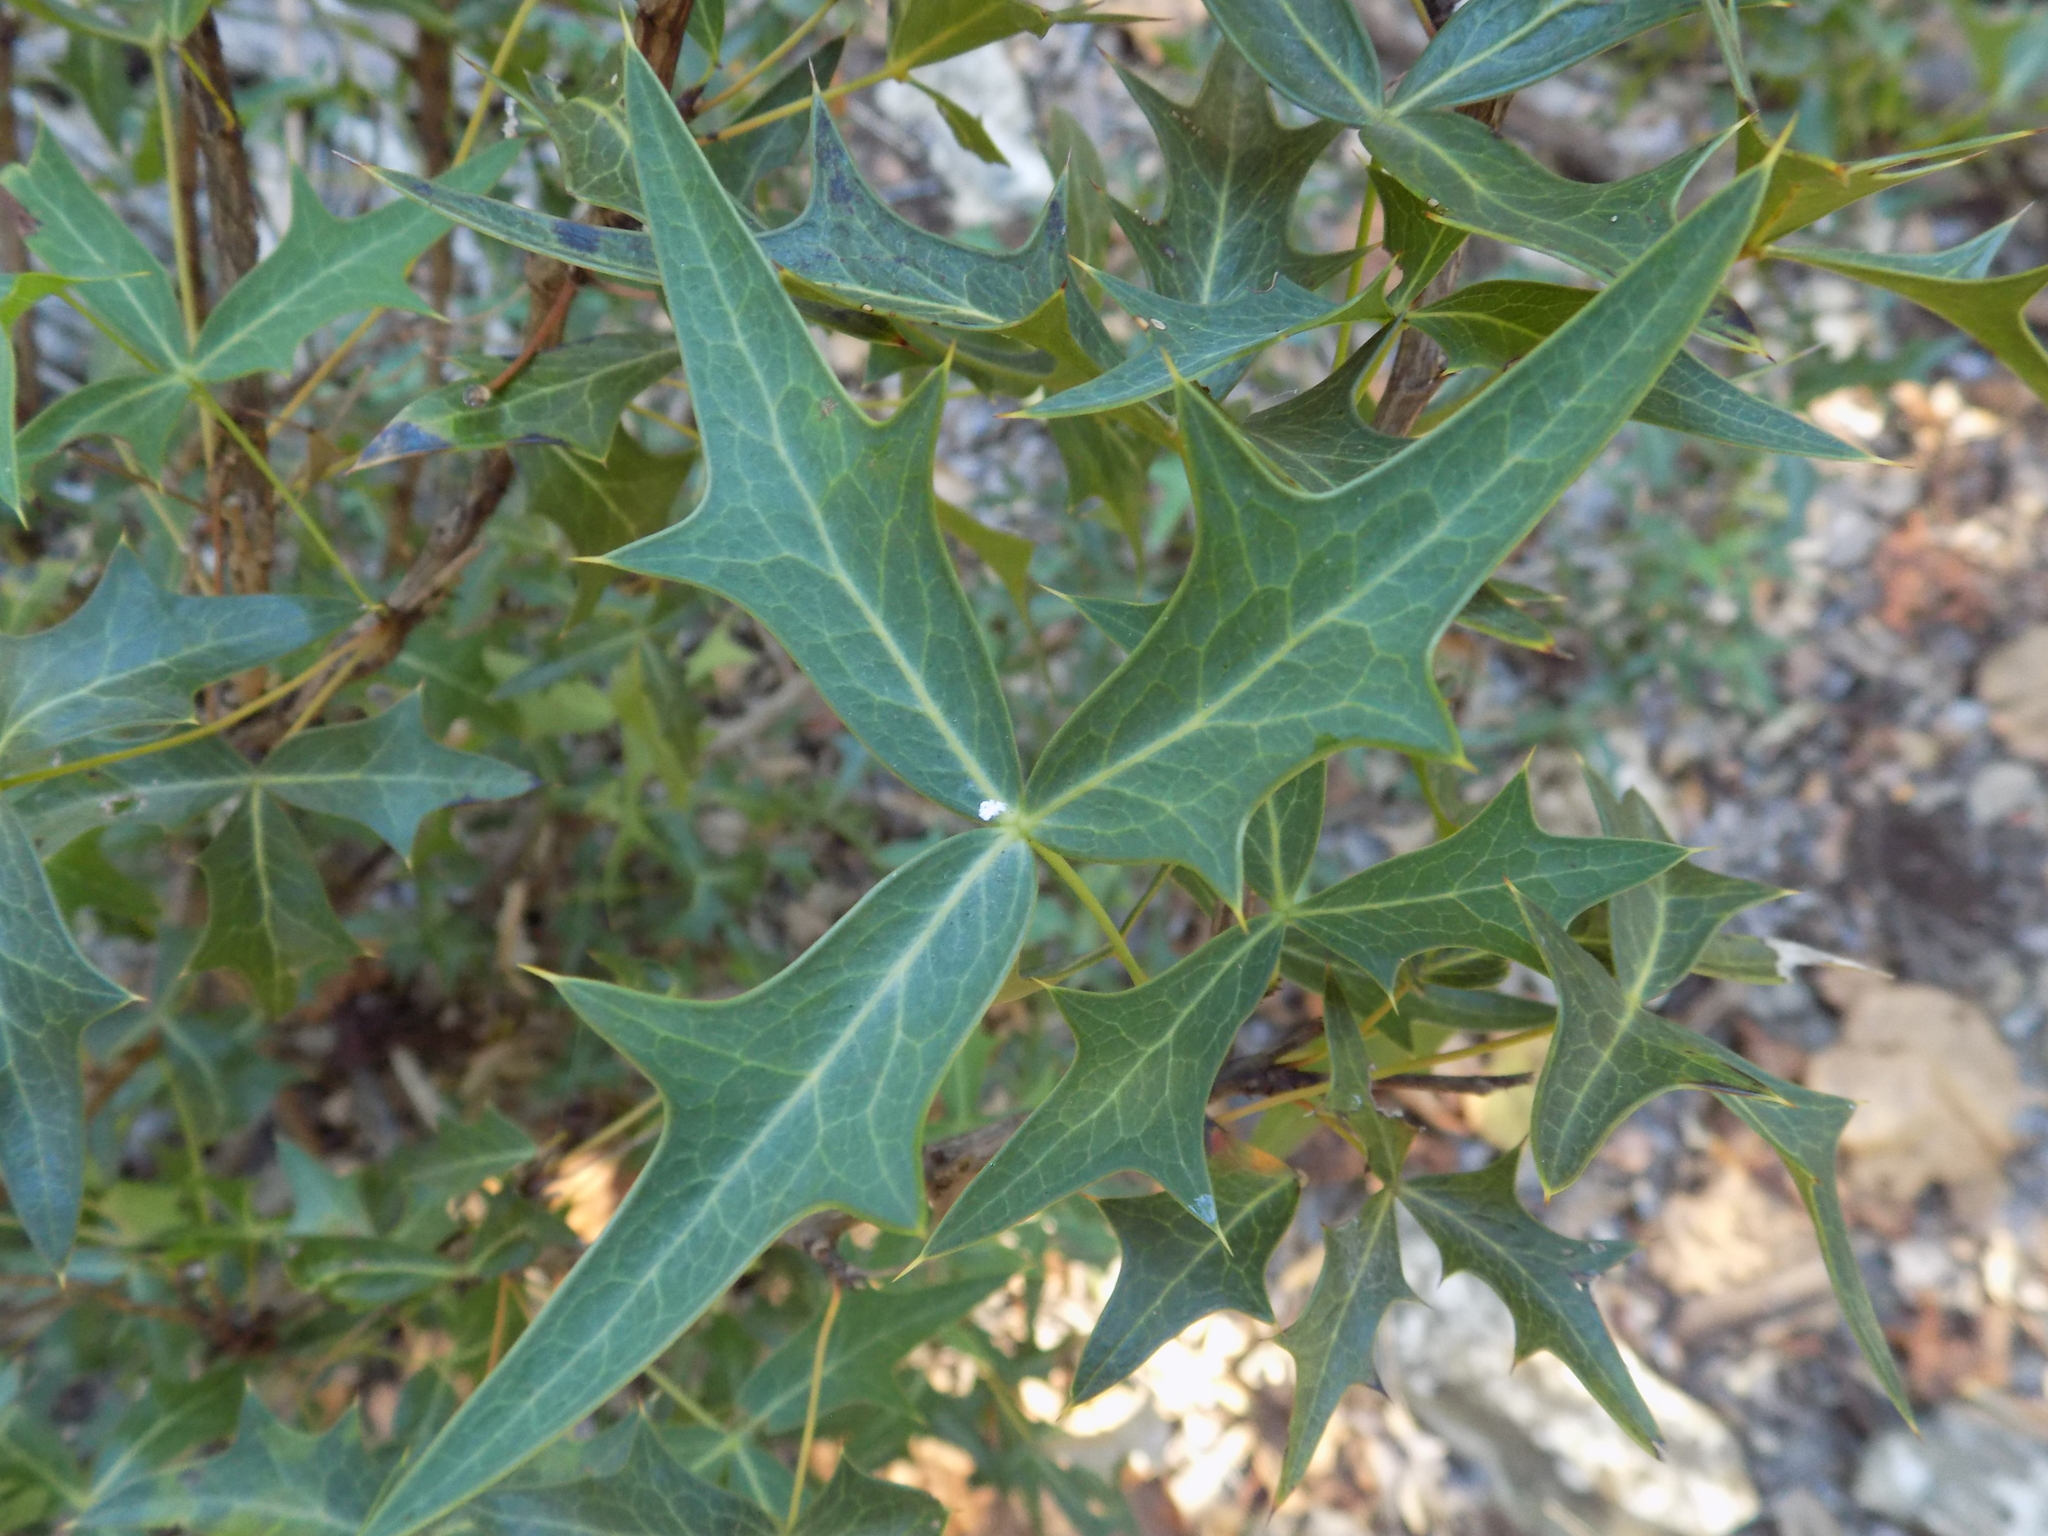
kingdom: Plantae
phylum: Tracheophyta
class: Magnoliopsida
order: Ranunculales
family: Berberidaceae
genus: Alloberberis
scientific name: Alloberberis trifoliolata
